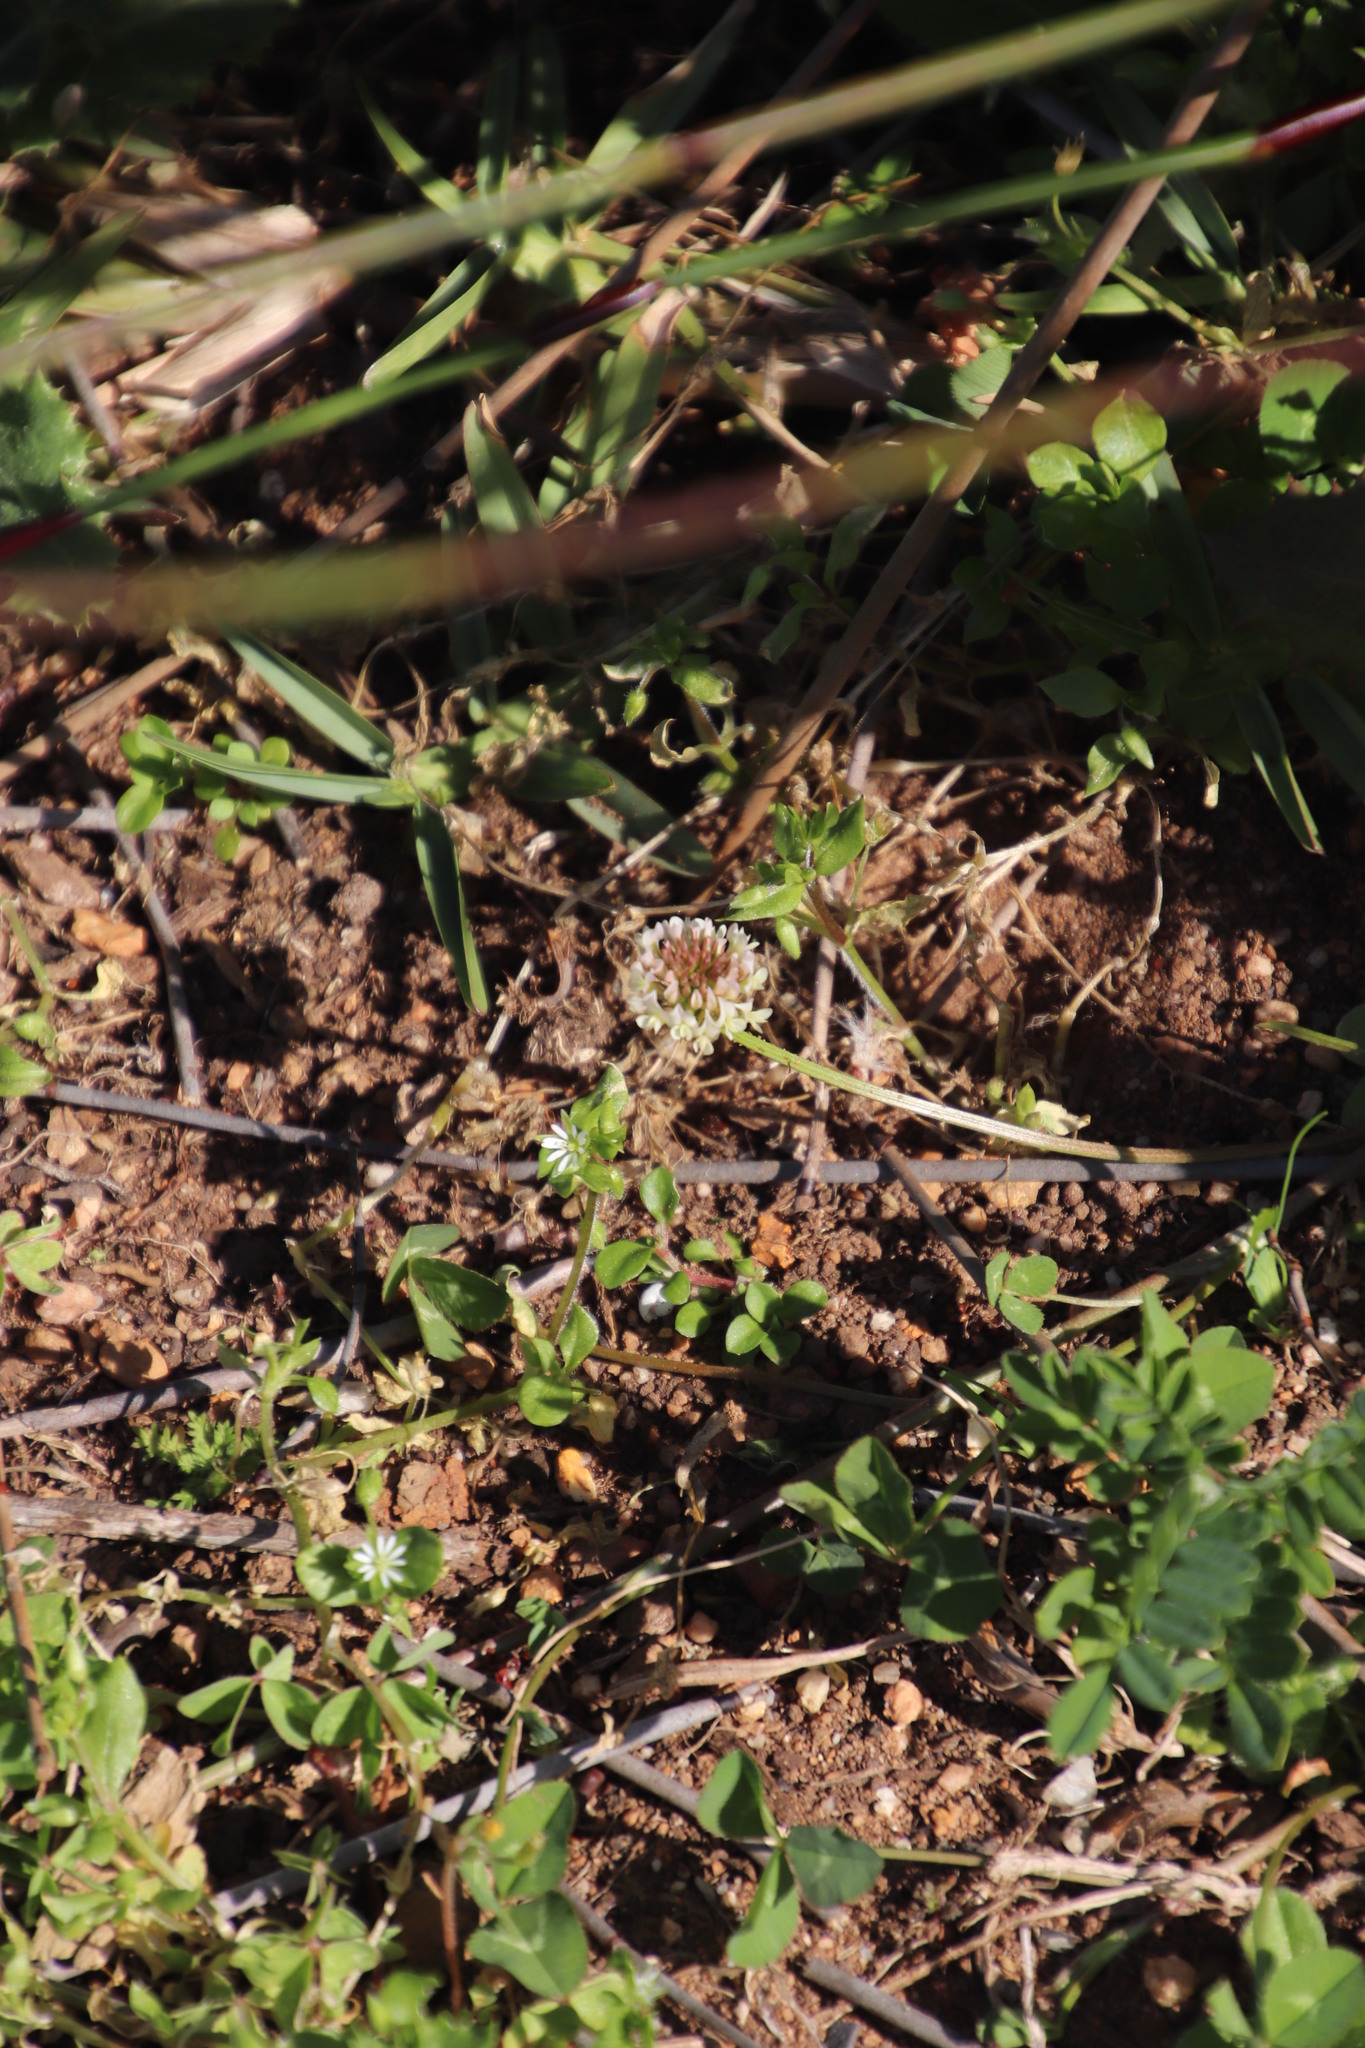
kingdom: Plantae
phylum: Tracheophyta
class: Magnoliopsida
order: Fabales
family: Fabaceae
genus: Trifolium
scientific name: Trifolium repens
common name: White clover
